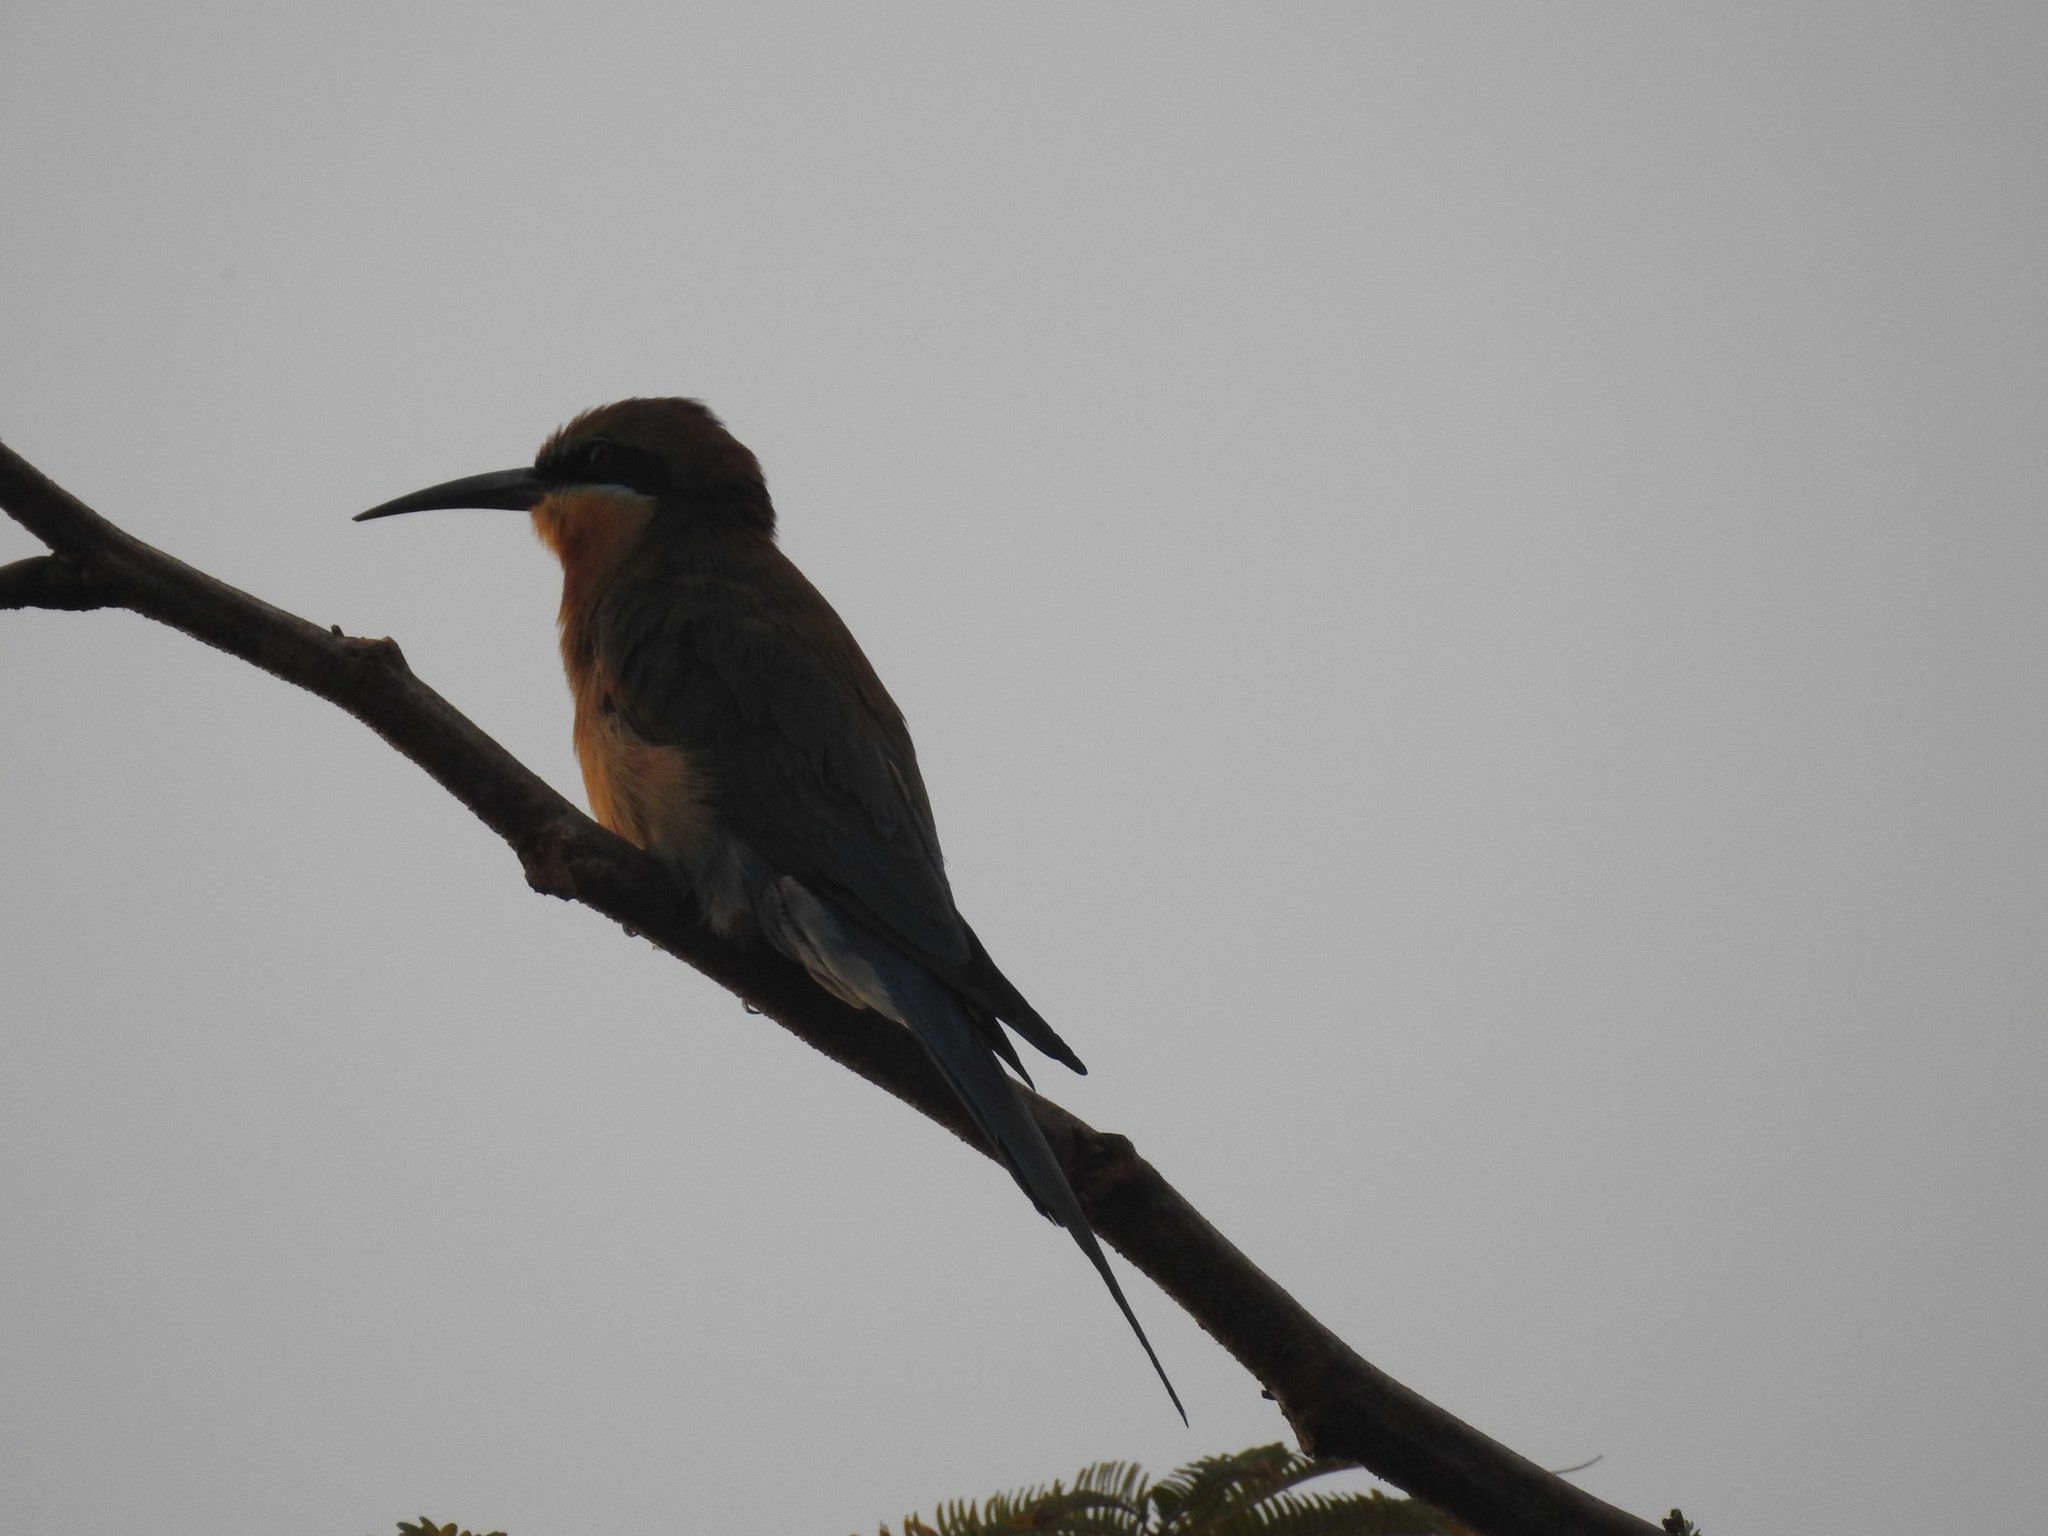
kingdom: Animalia
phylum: Chordata
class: Aves
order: Coraciiformes
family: Meropidae
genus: Merops
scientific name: Merops philippinus
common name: Blue-tailed bee-eater
